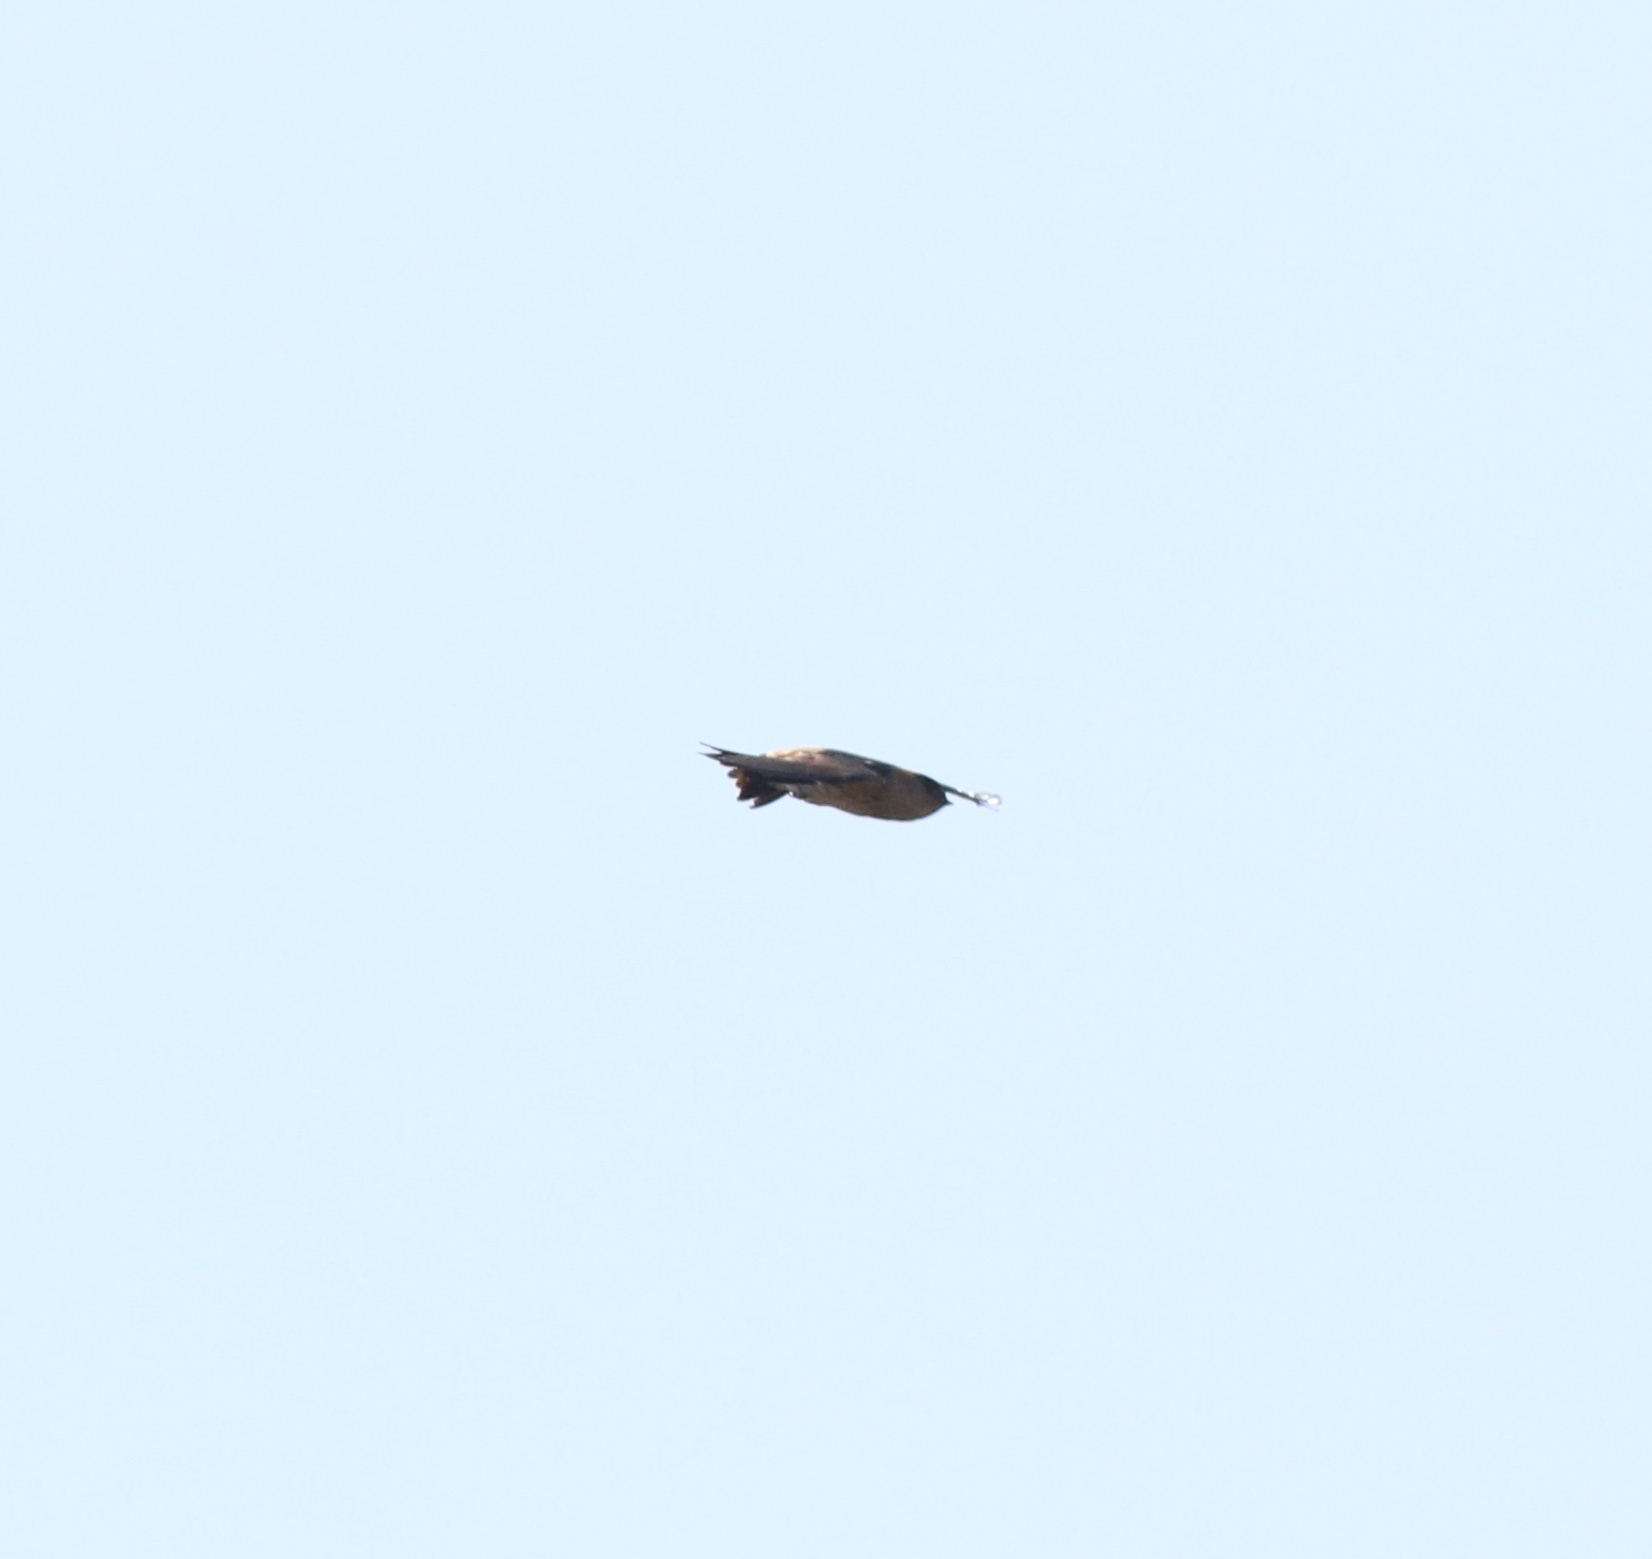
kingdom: Animalia
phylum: Chordata
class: Aves
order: Passeriformes
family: Hirundinidae
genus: Cecropis
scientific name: Cecropis daurica
